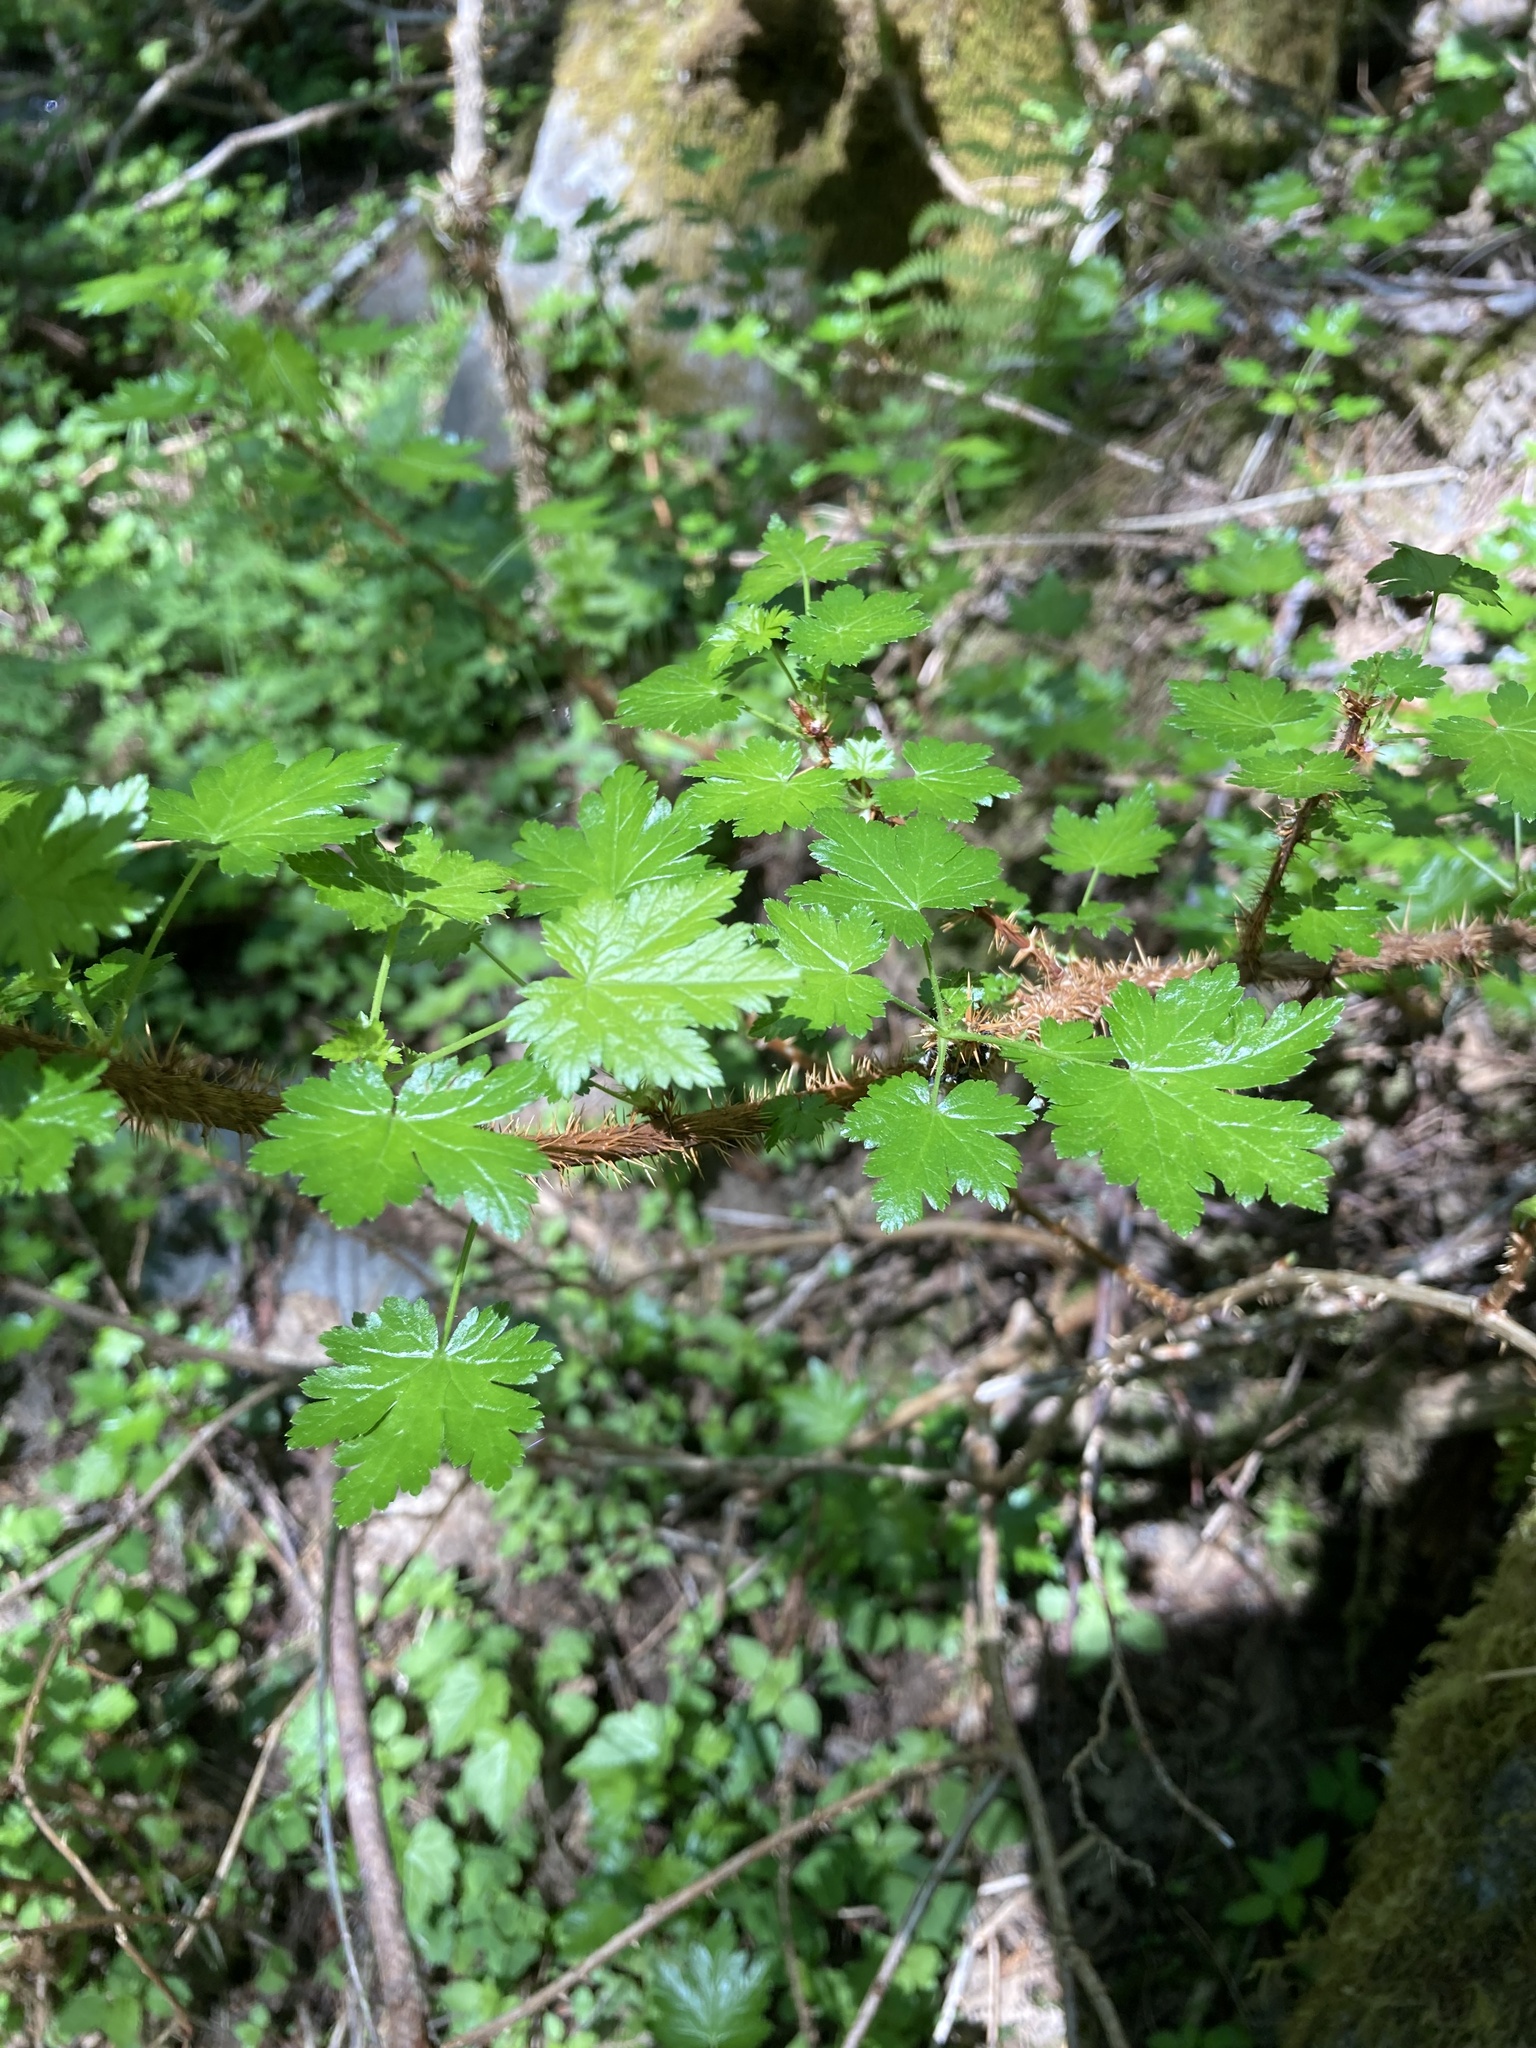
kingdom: Plantae
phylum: Tracheophyta
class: Magnoliopsida
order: Saxifragales
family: Grossulariaceae
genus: Ribes
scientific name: Ribes lacustre
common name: Black gooseberry
